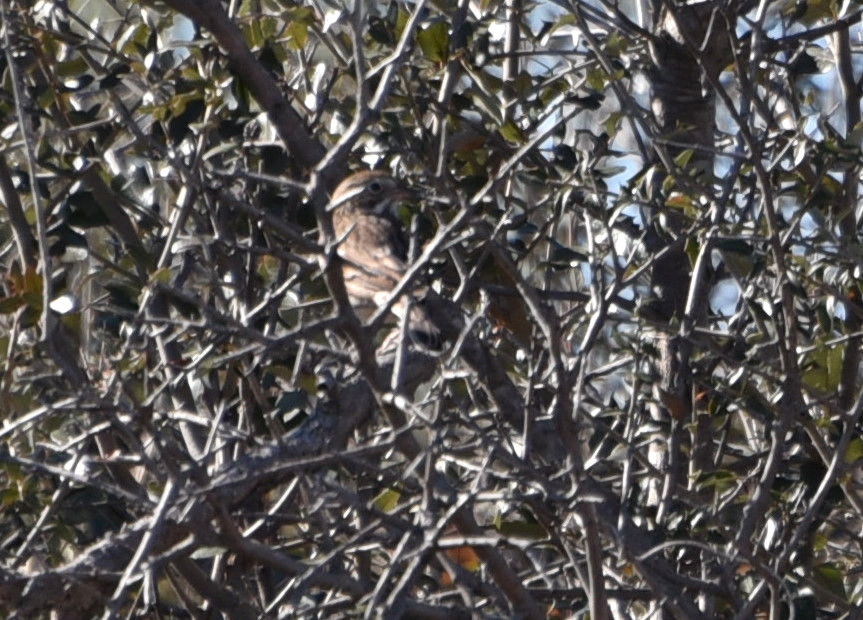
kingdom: Animalia
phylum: Chordata
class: Aves
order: Passeriformes
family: Passerellidae
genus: Pooecetes
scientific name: Pooecetes gramineus
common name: Vesper sparrow
